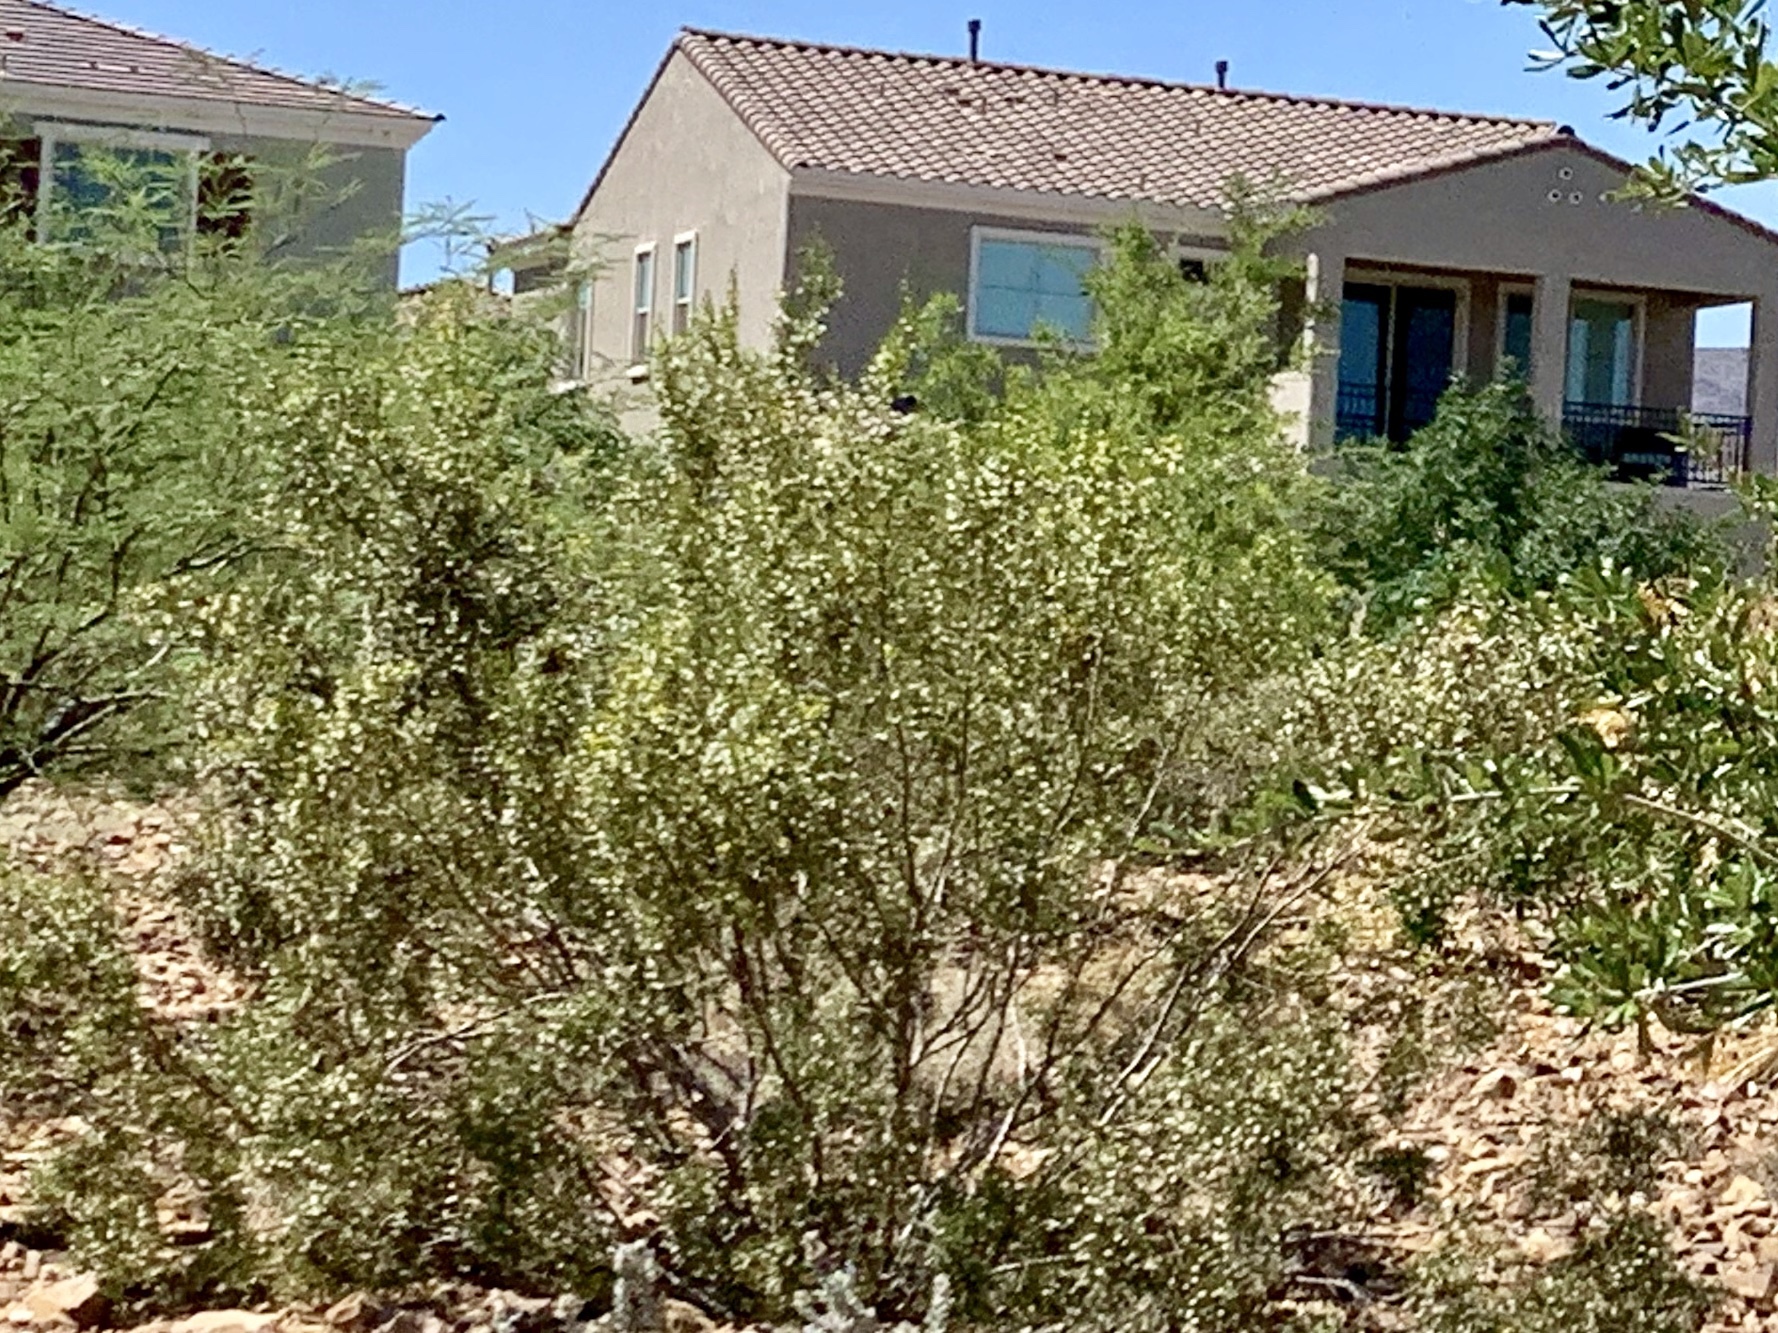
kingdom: Plantae
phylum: Tracheophyta
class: Magnoliopsida
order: Zygophyllales
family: Zygophyllaceae
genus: Larrea
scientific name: Larrea tridentata
